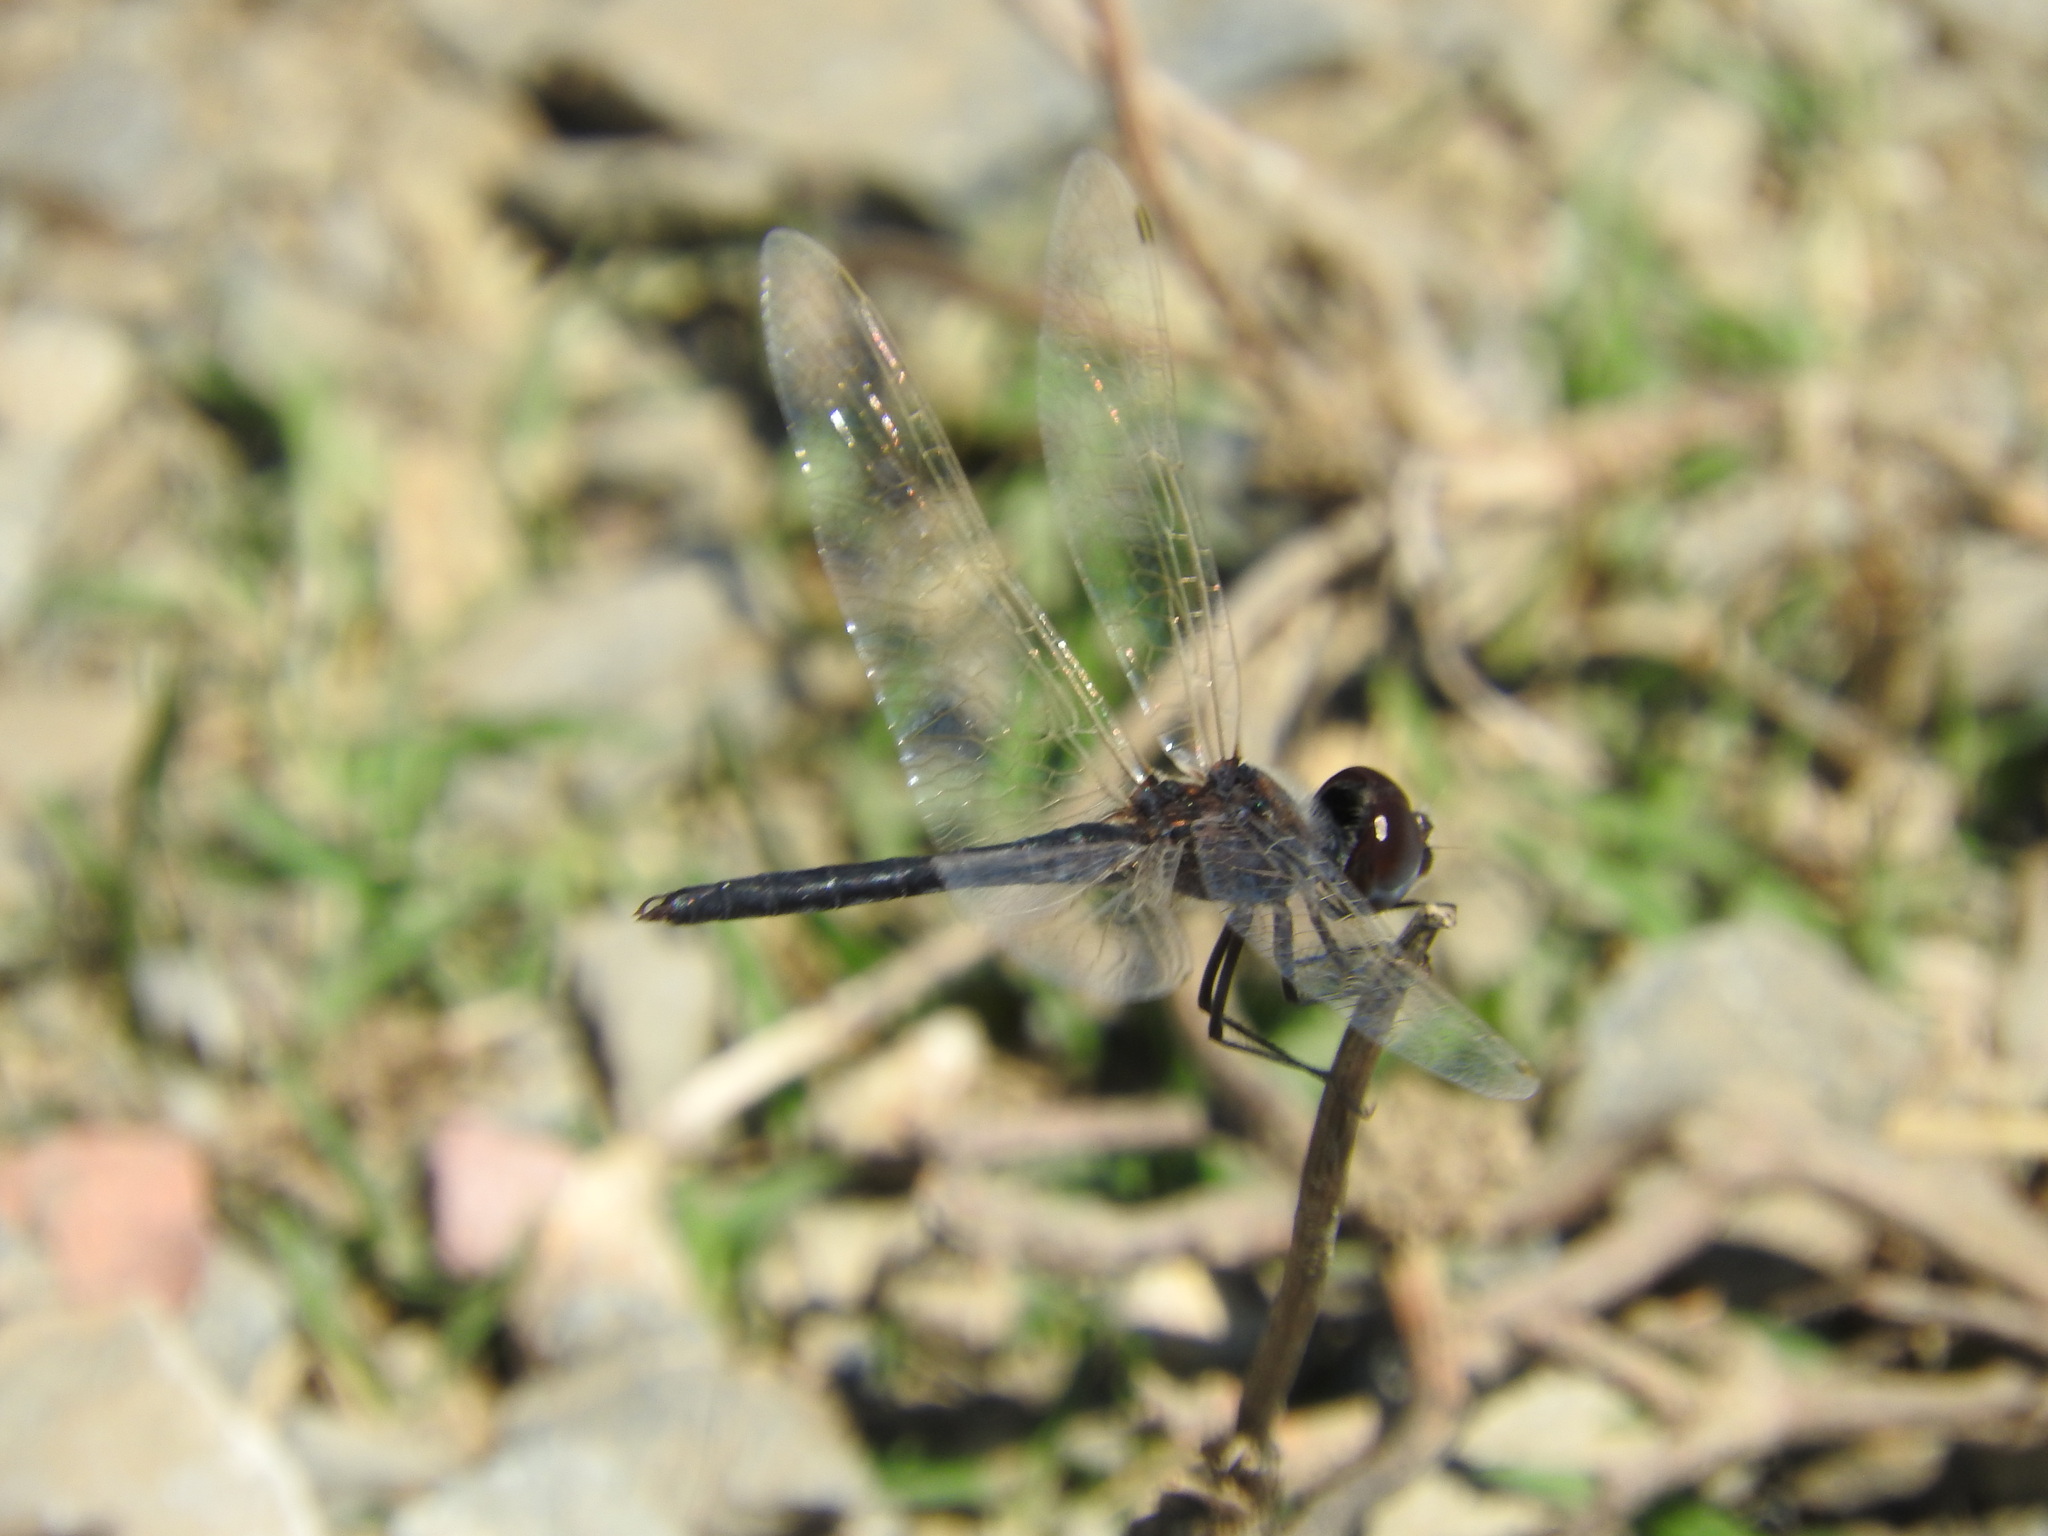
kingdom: Animalia
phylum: Arthropoda
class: Insecta
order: Odonata
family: Libellulidae
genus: Selysiothemis
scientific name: Selysiothemis nigra
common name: Black pennant
